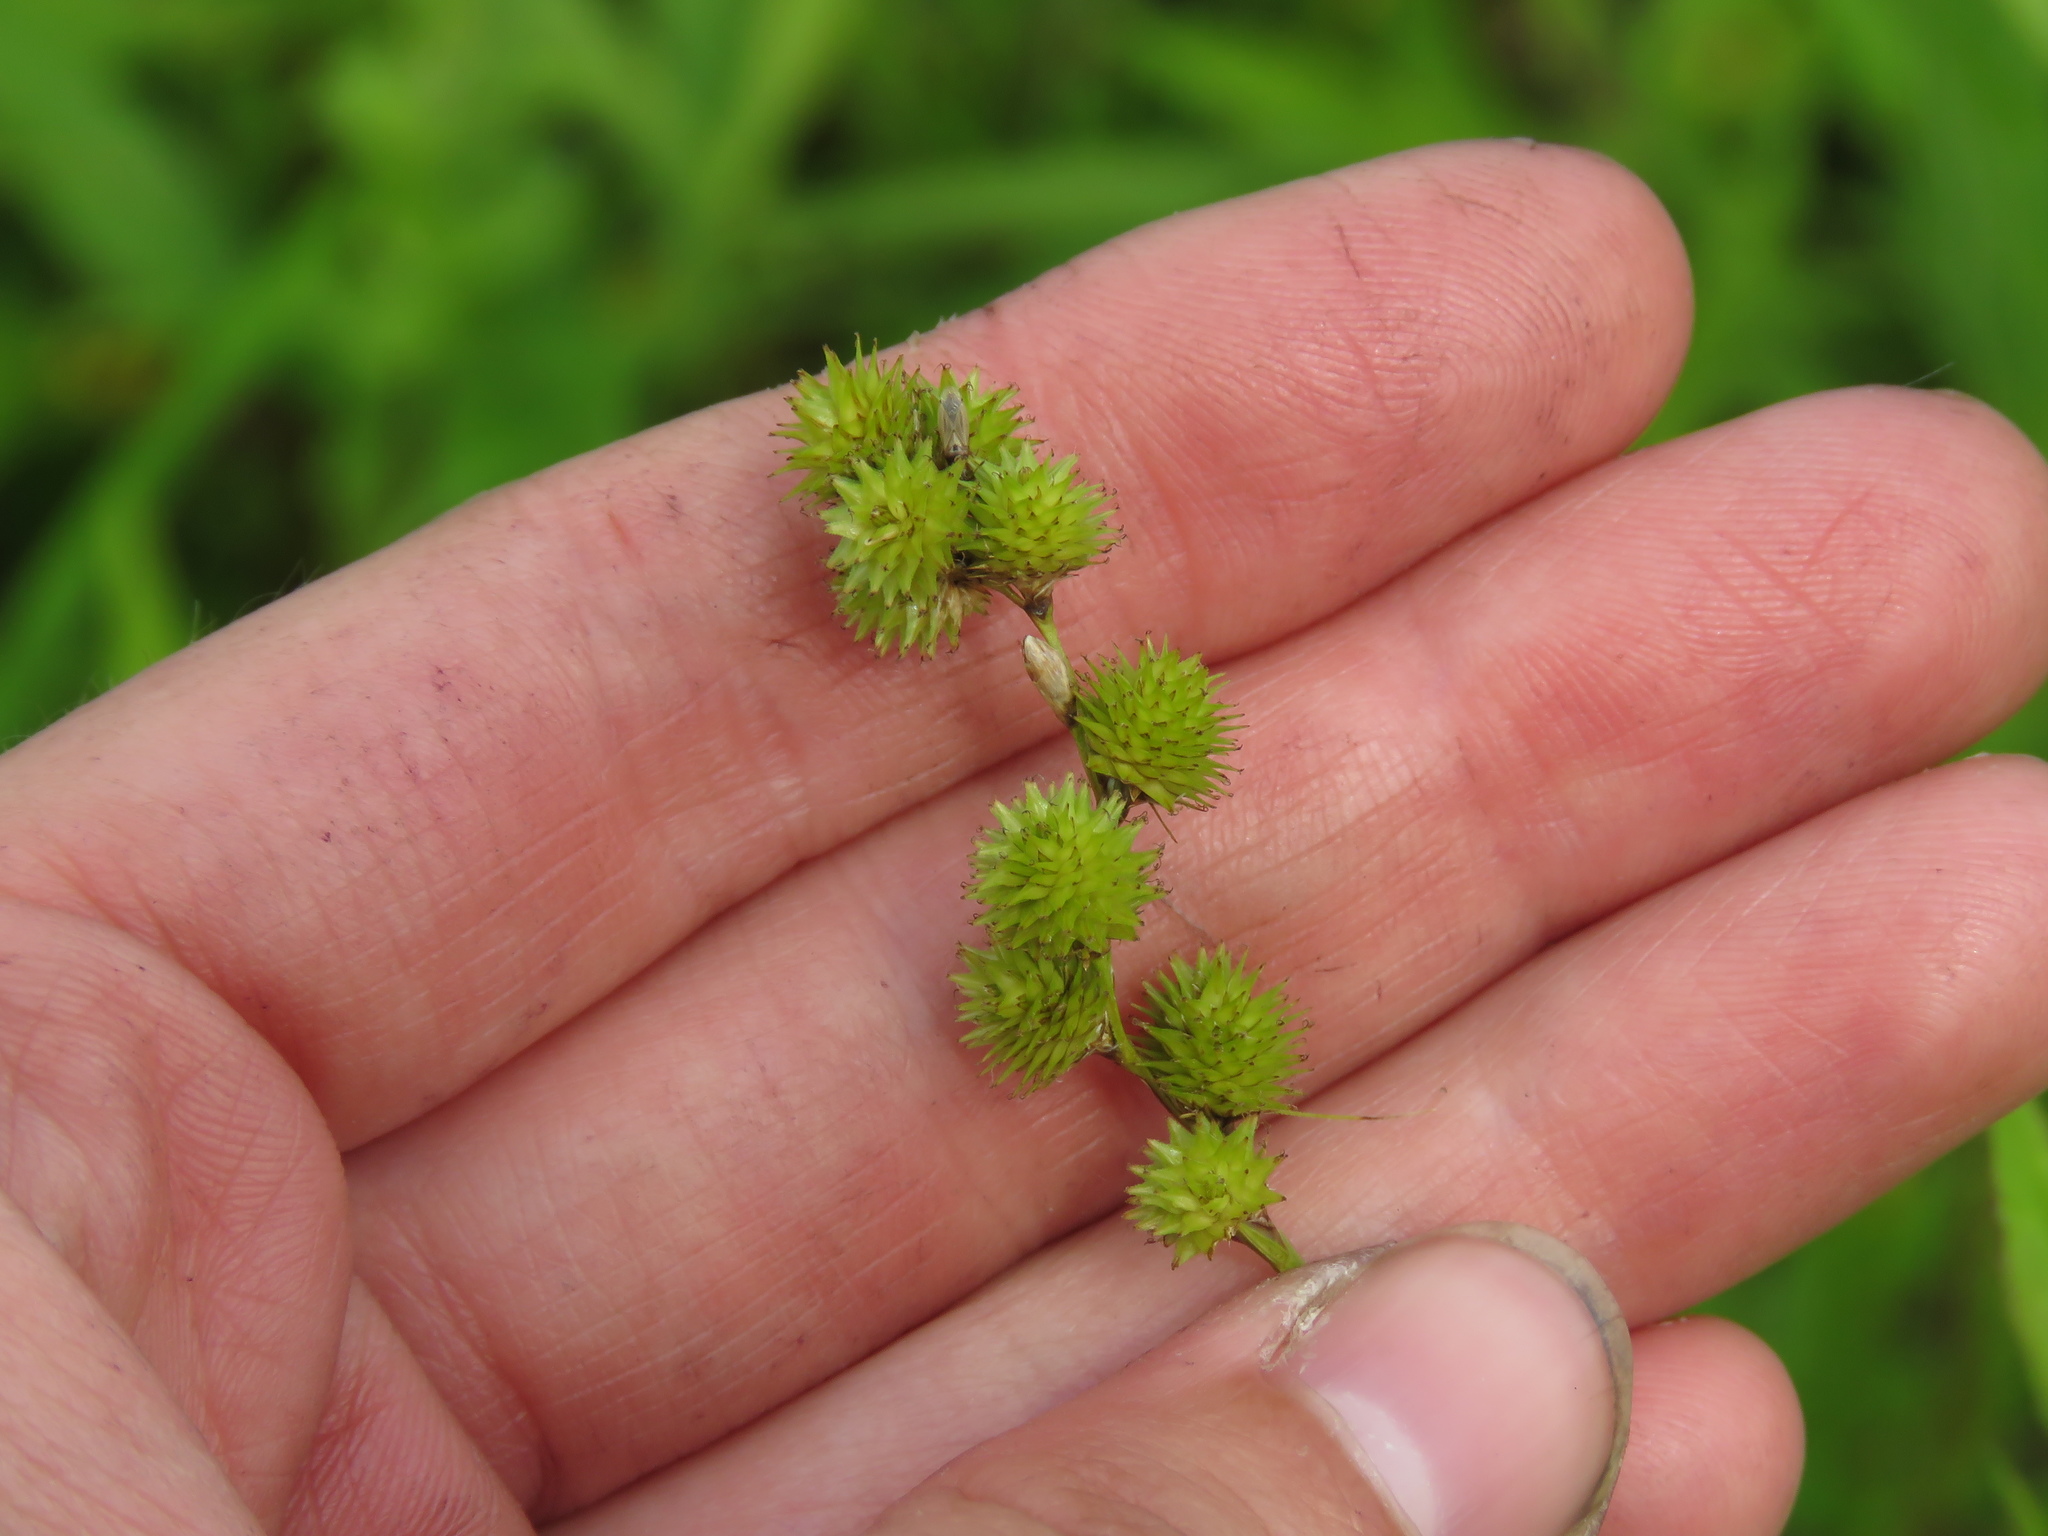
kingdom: Plantae
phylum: Tracheophyta
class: Liliopsida
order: Poales
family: Cyperaceae
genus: Carex
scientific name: Carex cristatella
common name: Crested oval sedge
